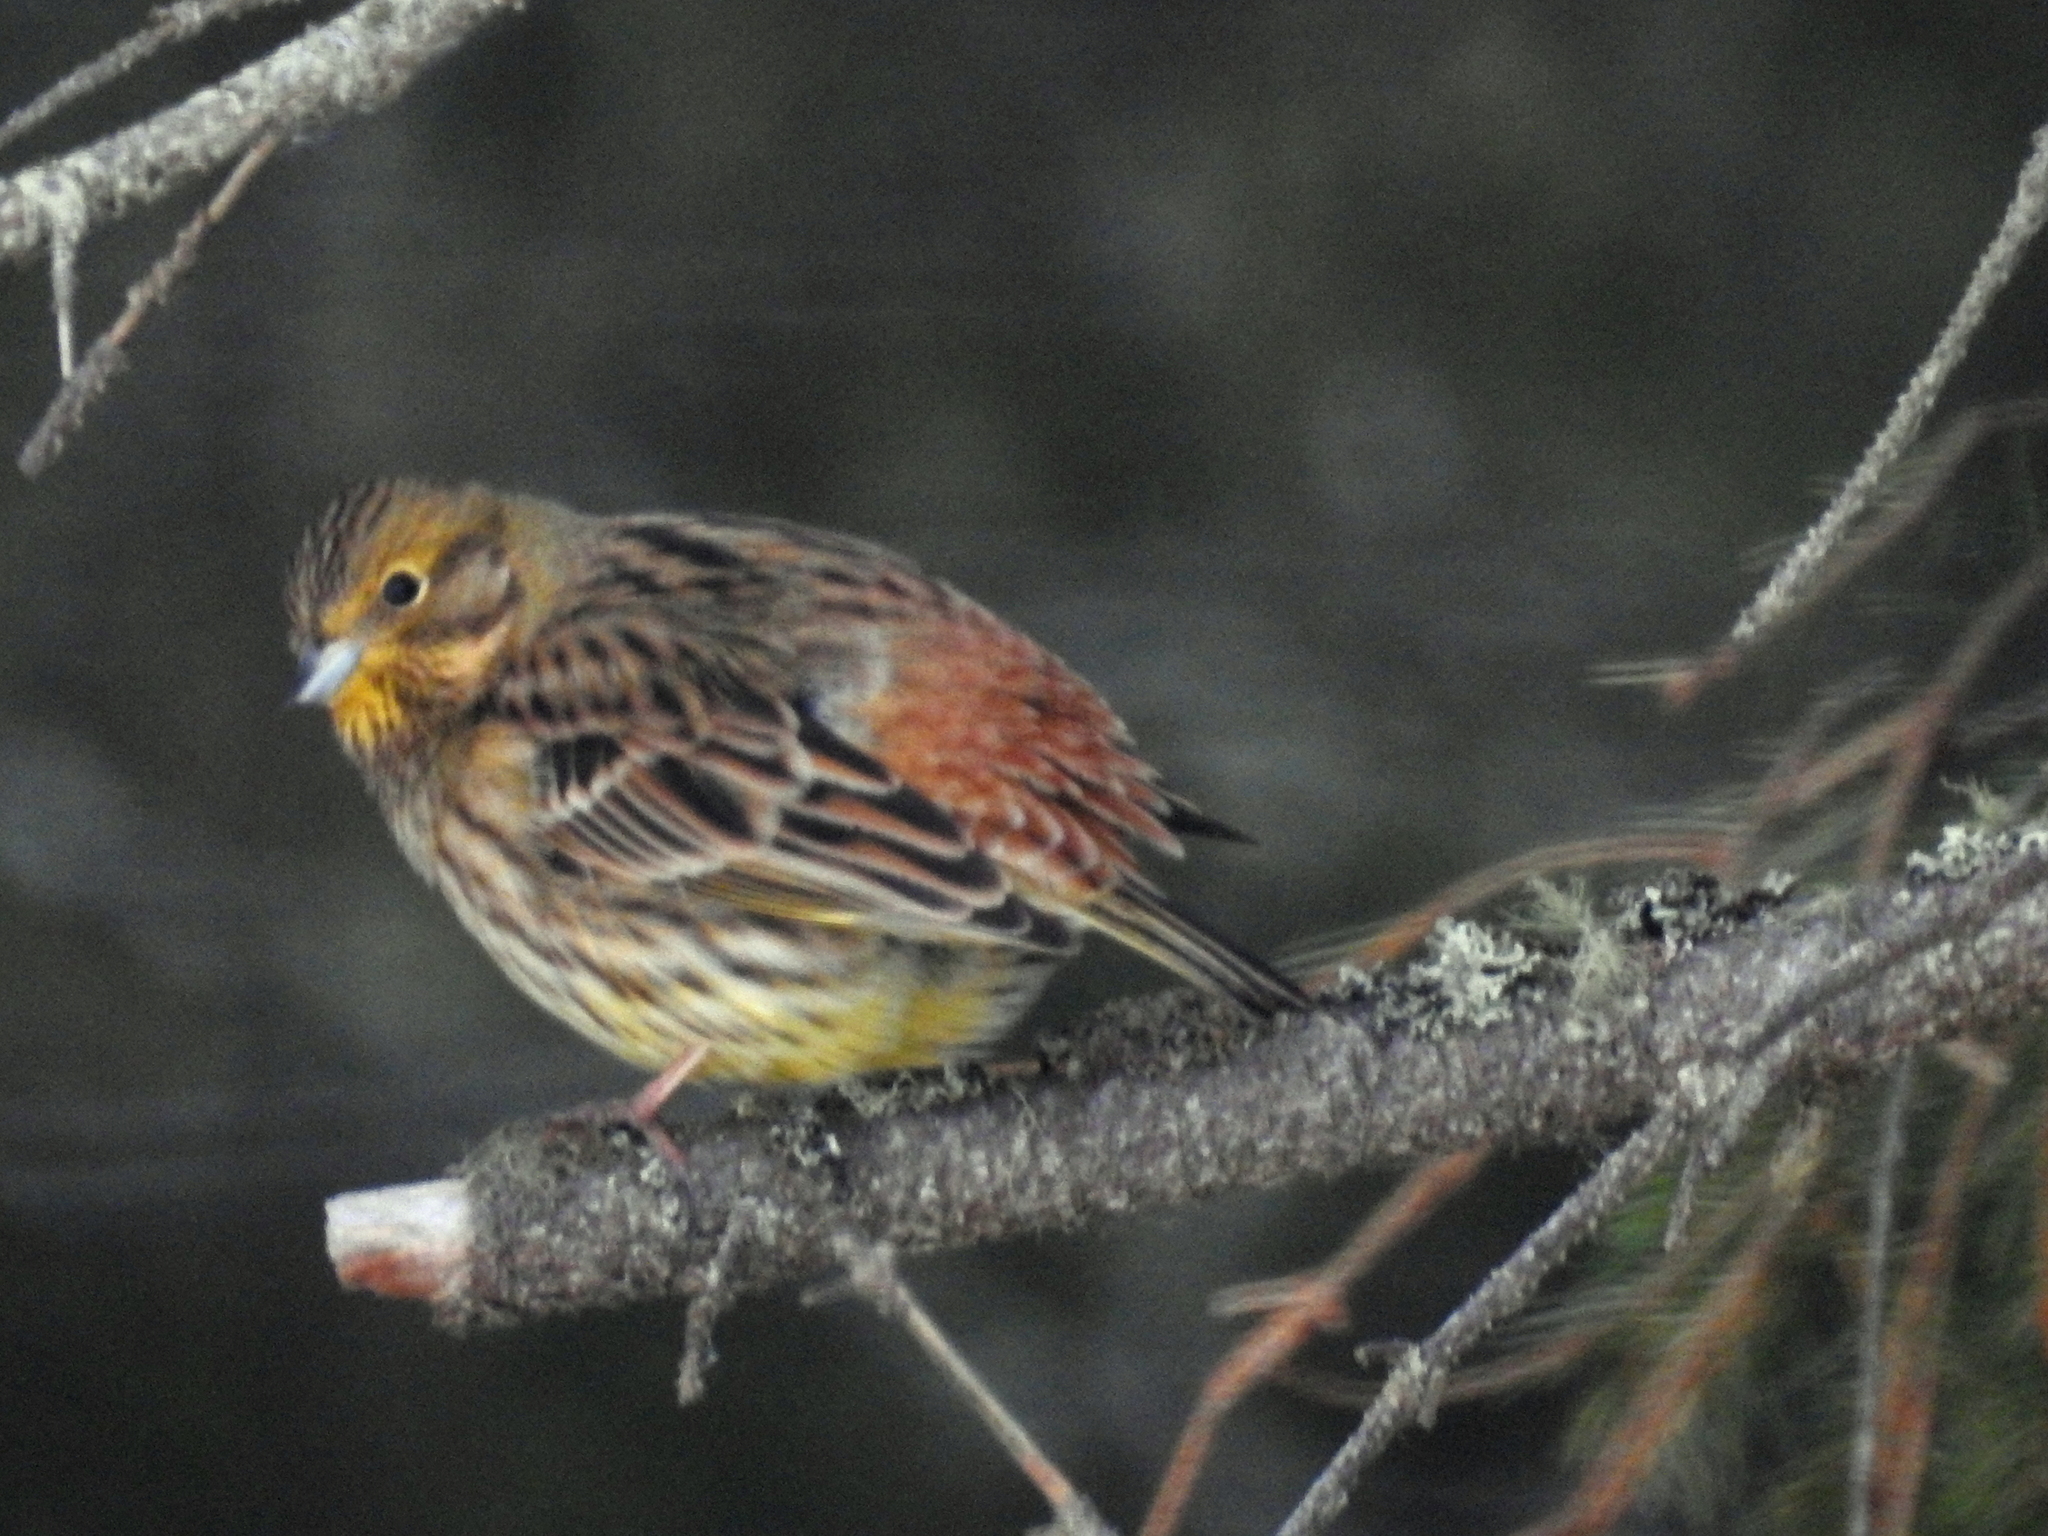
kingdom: Animalia
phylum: Chordata
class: Aves
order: Passeriformes
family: Emberizidae
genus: Emberiza
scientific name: Emberiza citrinella
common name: Yellowhammer
